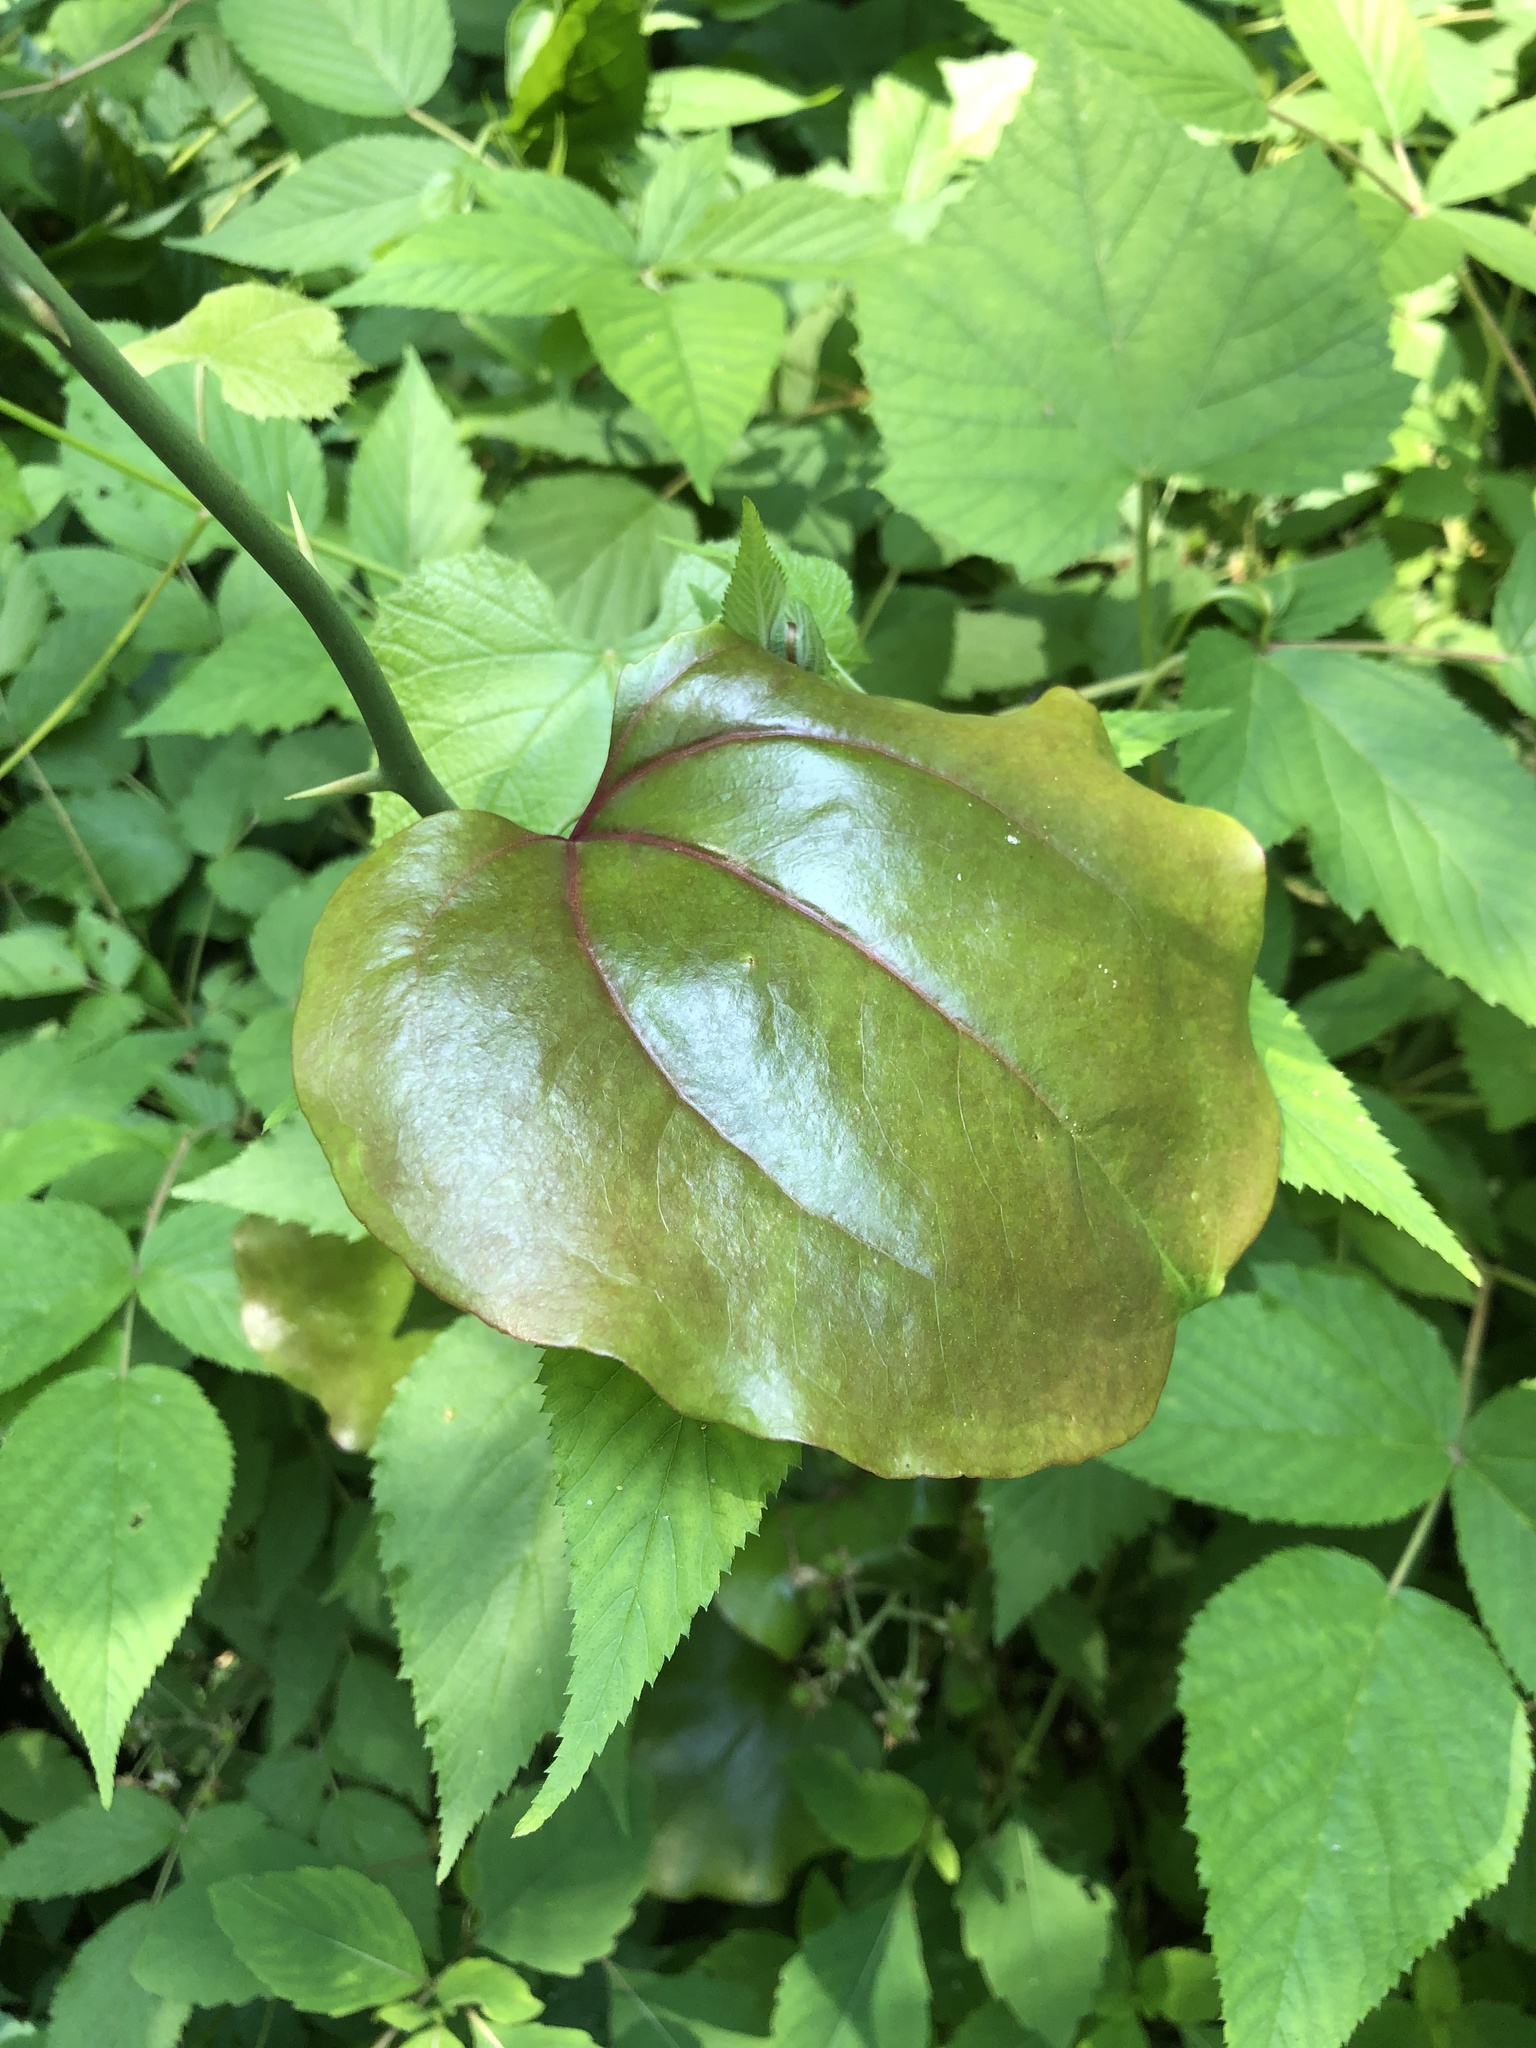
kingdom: Plantae
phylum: Tracheophyta
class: Liliopsida
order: Liliales
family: Smilacaceae
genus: Smilax
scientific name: Smilax rotundifolia
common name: Bullbriar
